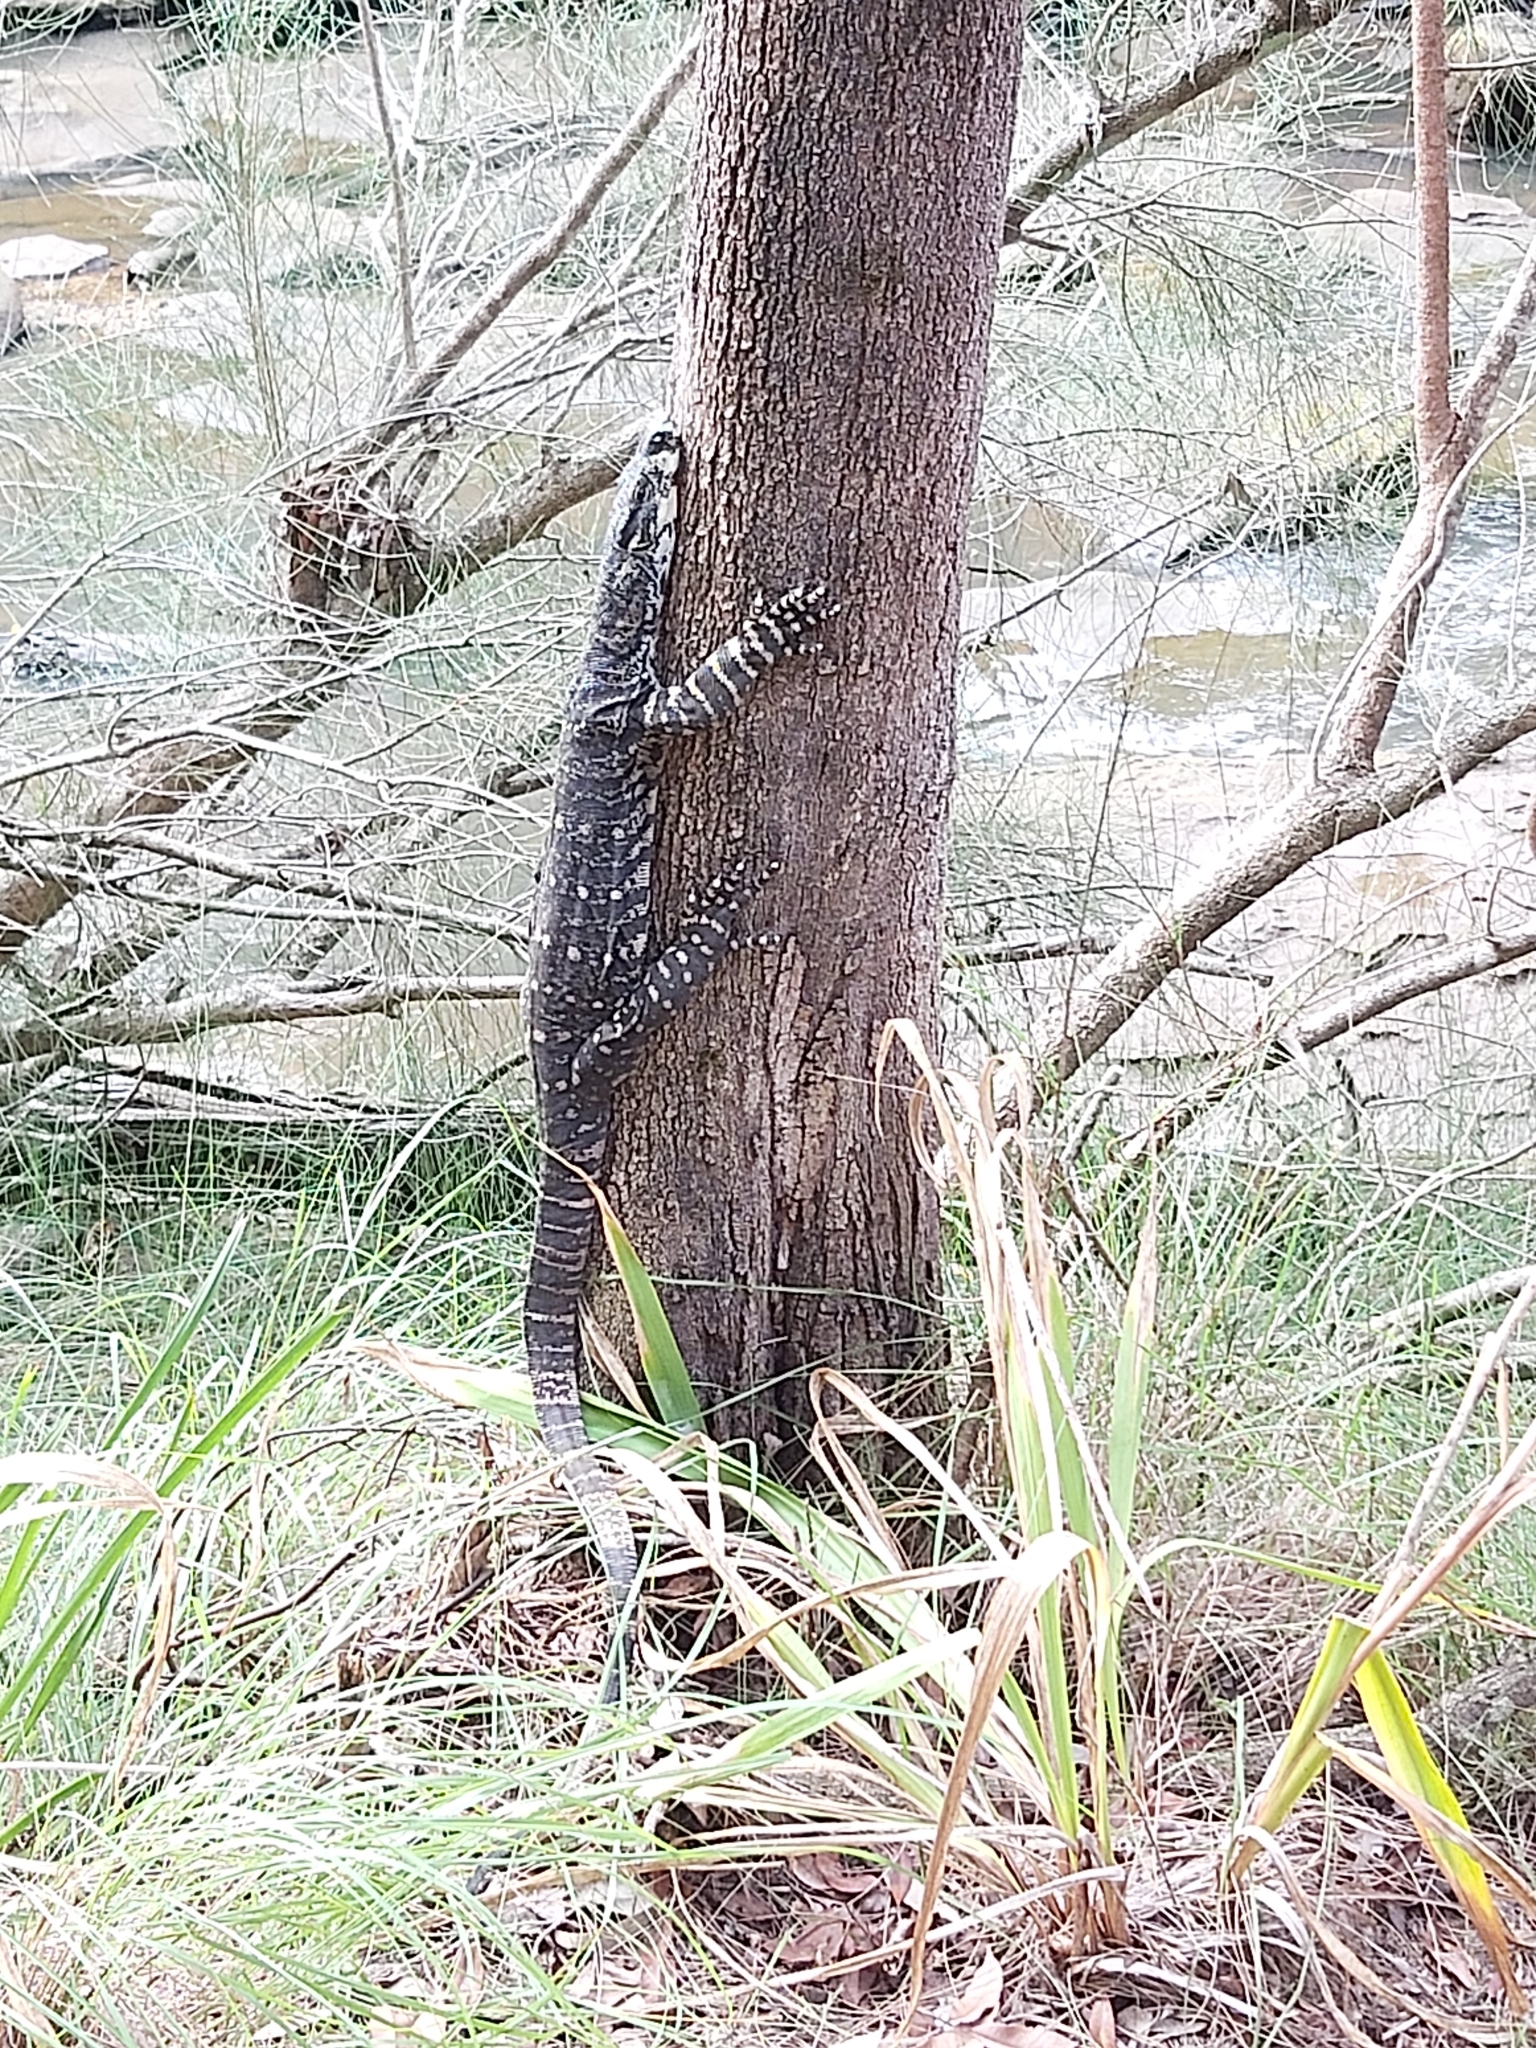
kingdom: Animalia
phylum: Chordata
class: Squamata
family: Varanidae
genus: Varanus
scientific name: Varanus varius
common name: Lace monitor
